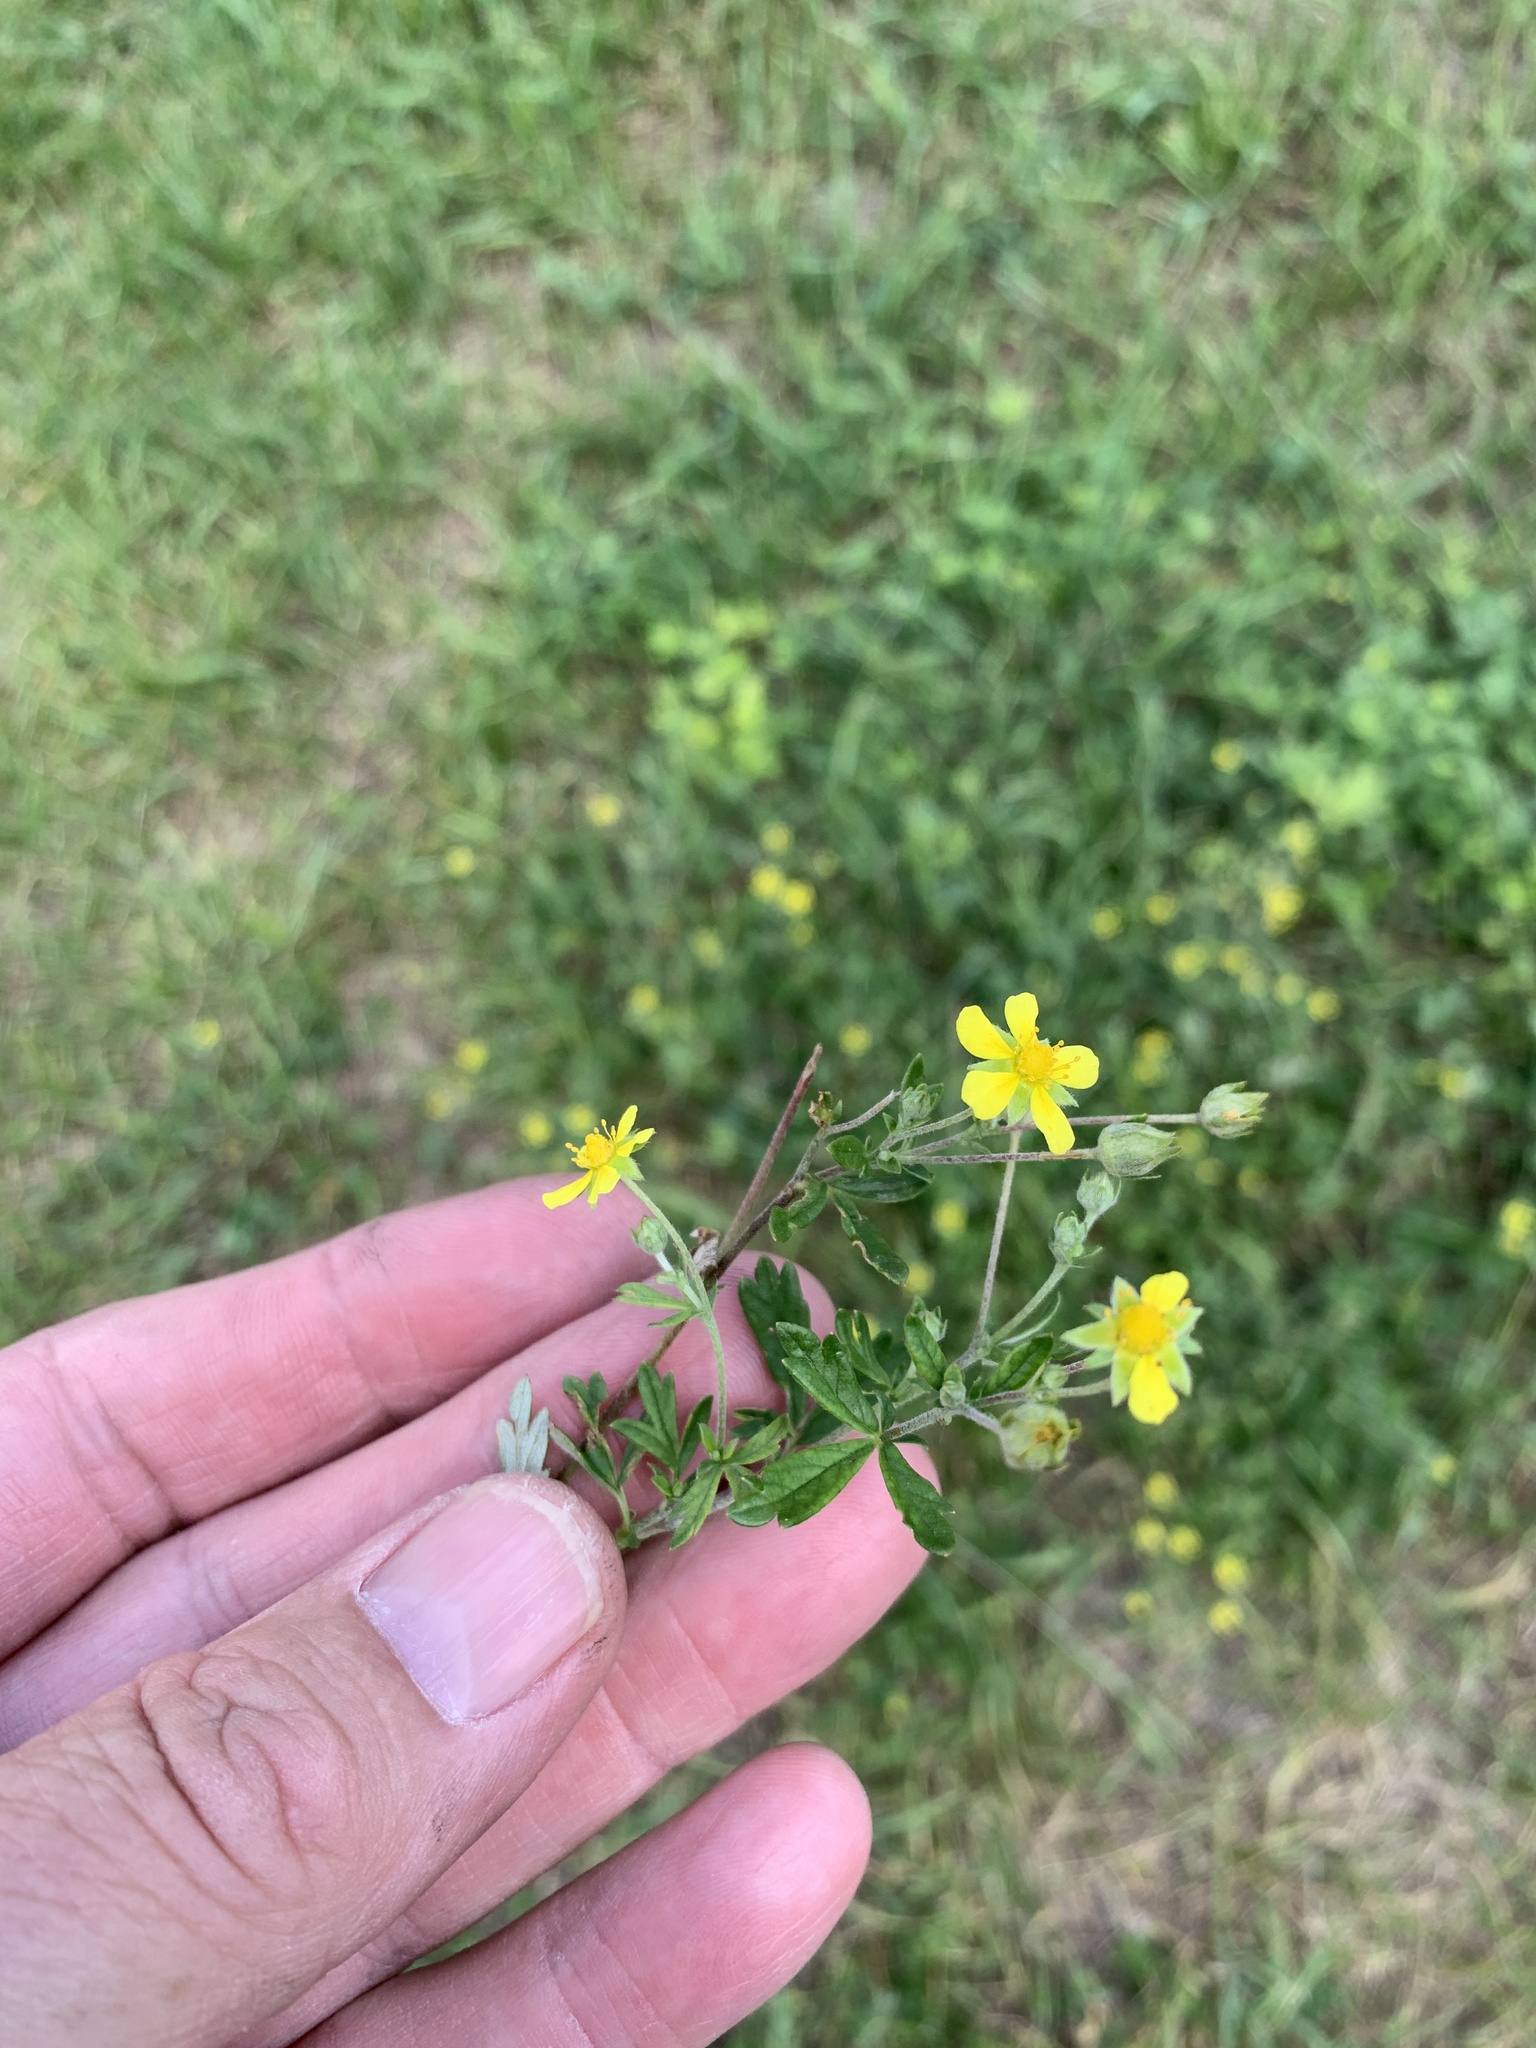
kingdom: Plantae
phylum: Tracheophyta
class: Magnoliopsida
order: Rosales
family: Rosaceae
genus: Potentilla
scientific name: Potentilla argentea
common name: Hoary cinquefoil
